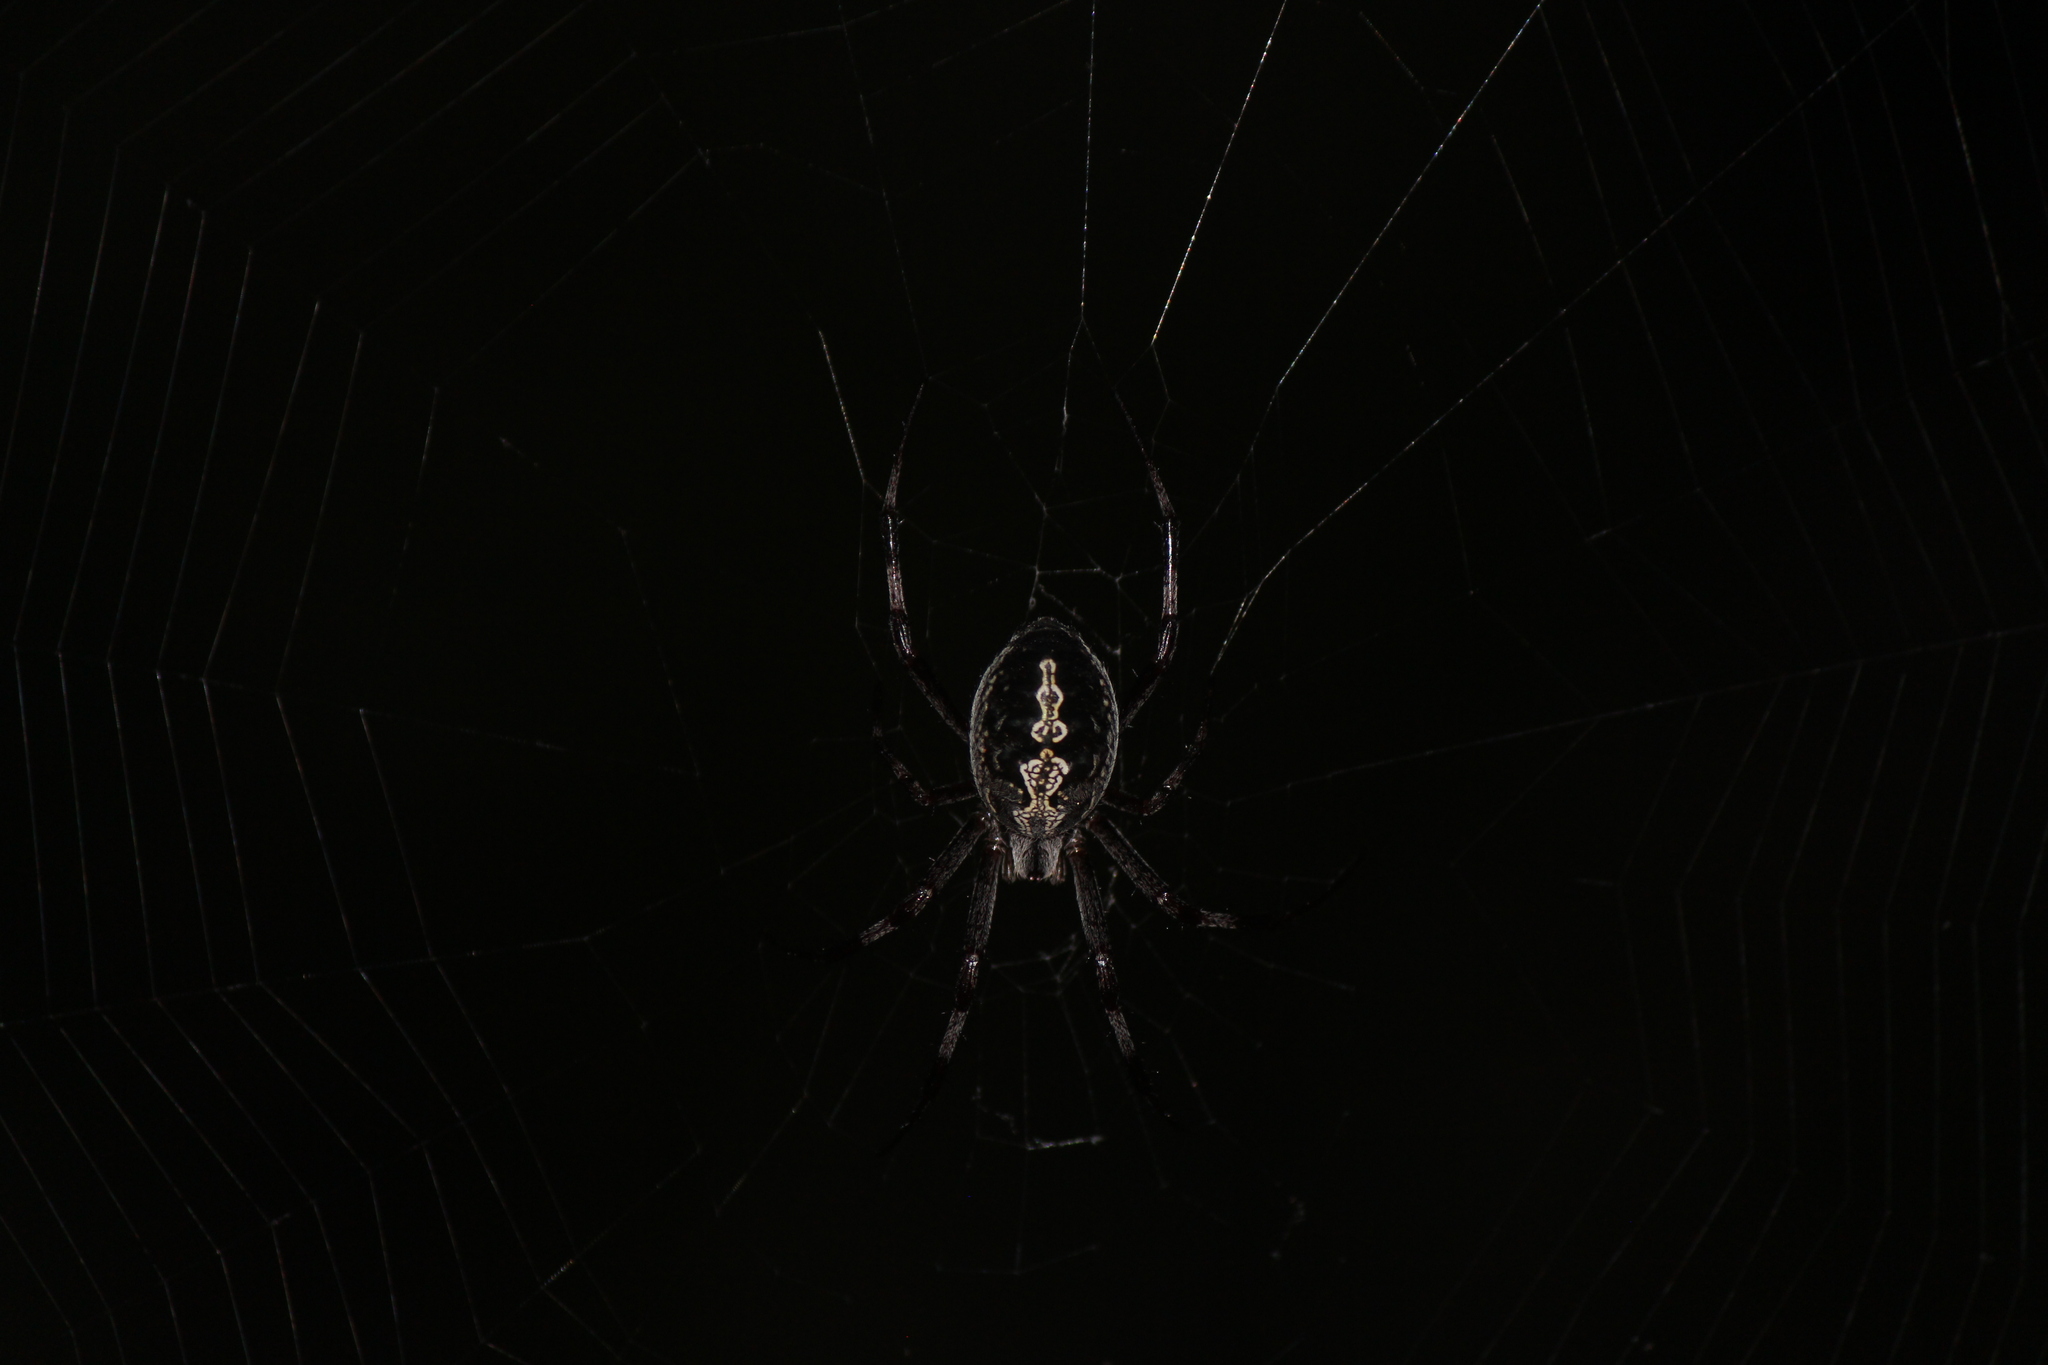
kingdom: Animalia
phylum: Arthropoda
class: Arachnida
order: Araneae
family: Araneidae
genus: Neoscona
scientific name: Neoscona oaxacensis
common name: Orb weavers
